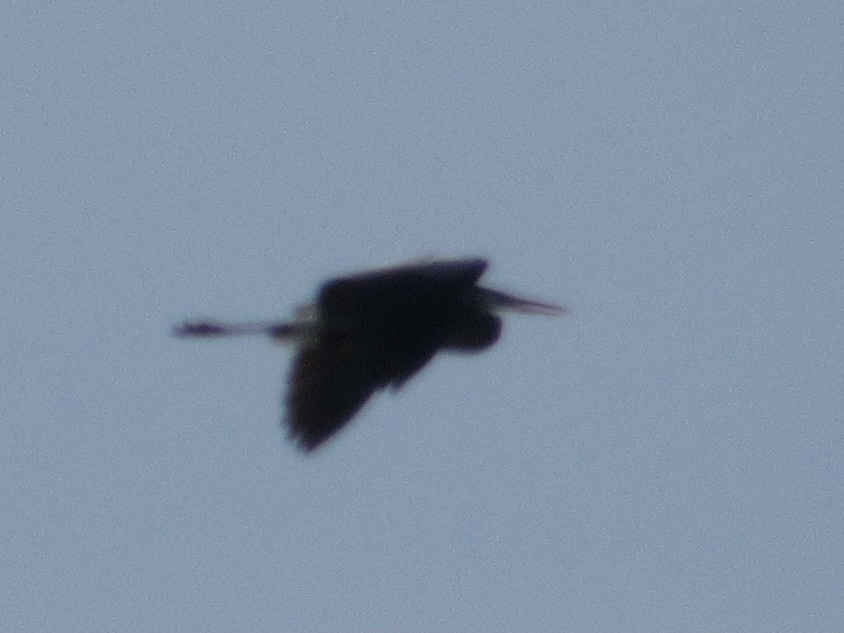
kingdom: Animalia
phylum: Chordata
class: Aves
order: Pelecaniformes
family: Ardeidae
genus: Ardea
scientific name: Ardea herodias
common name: Great blue heron
